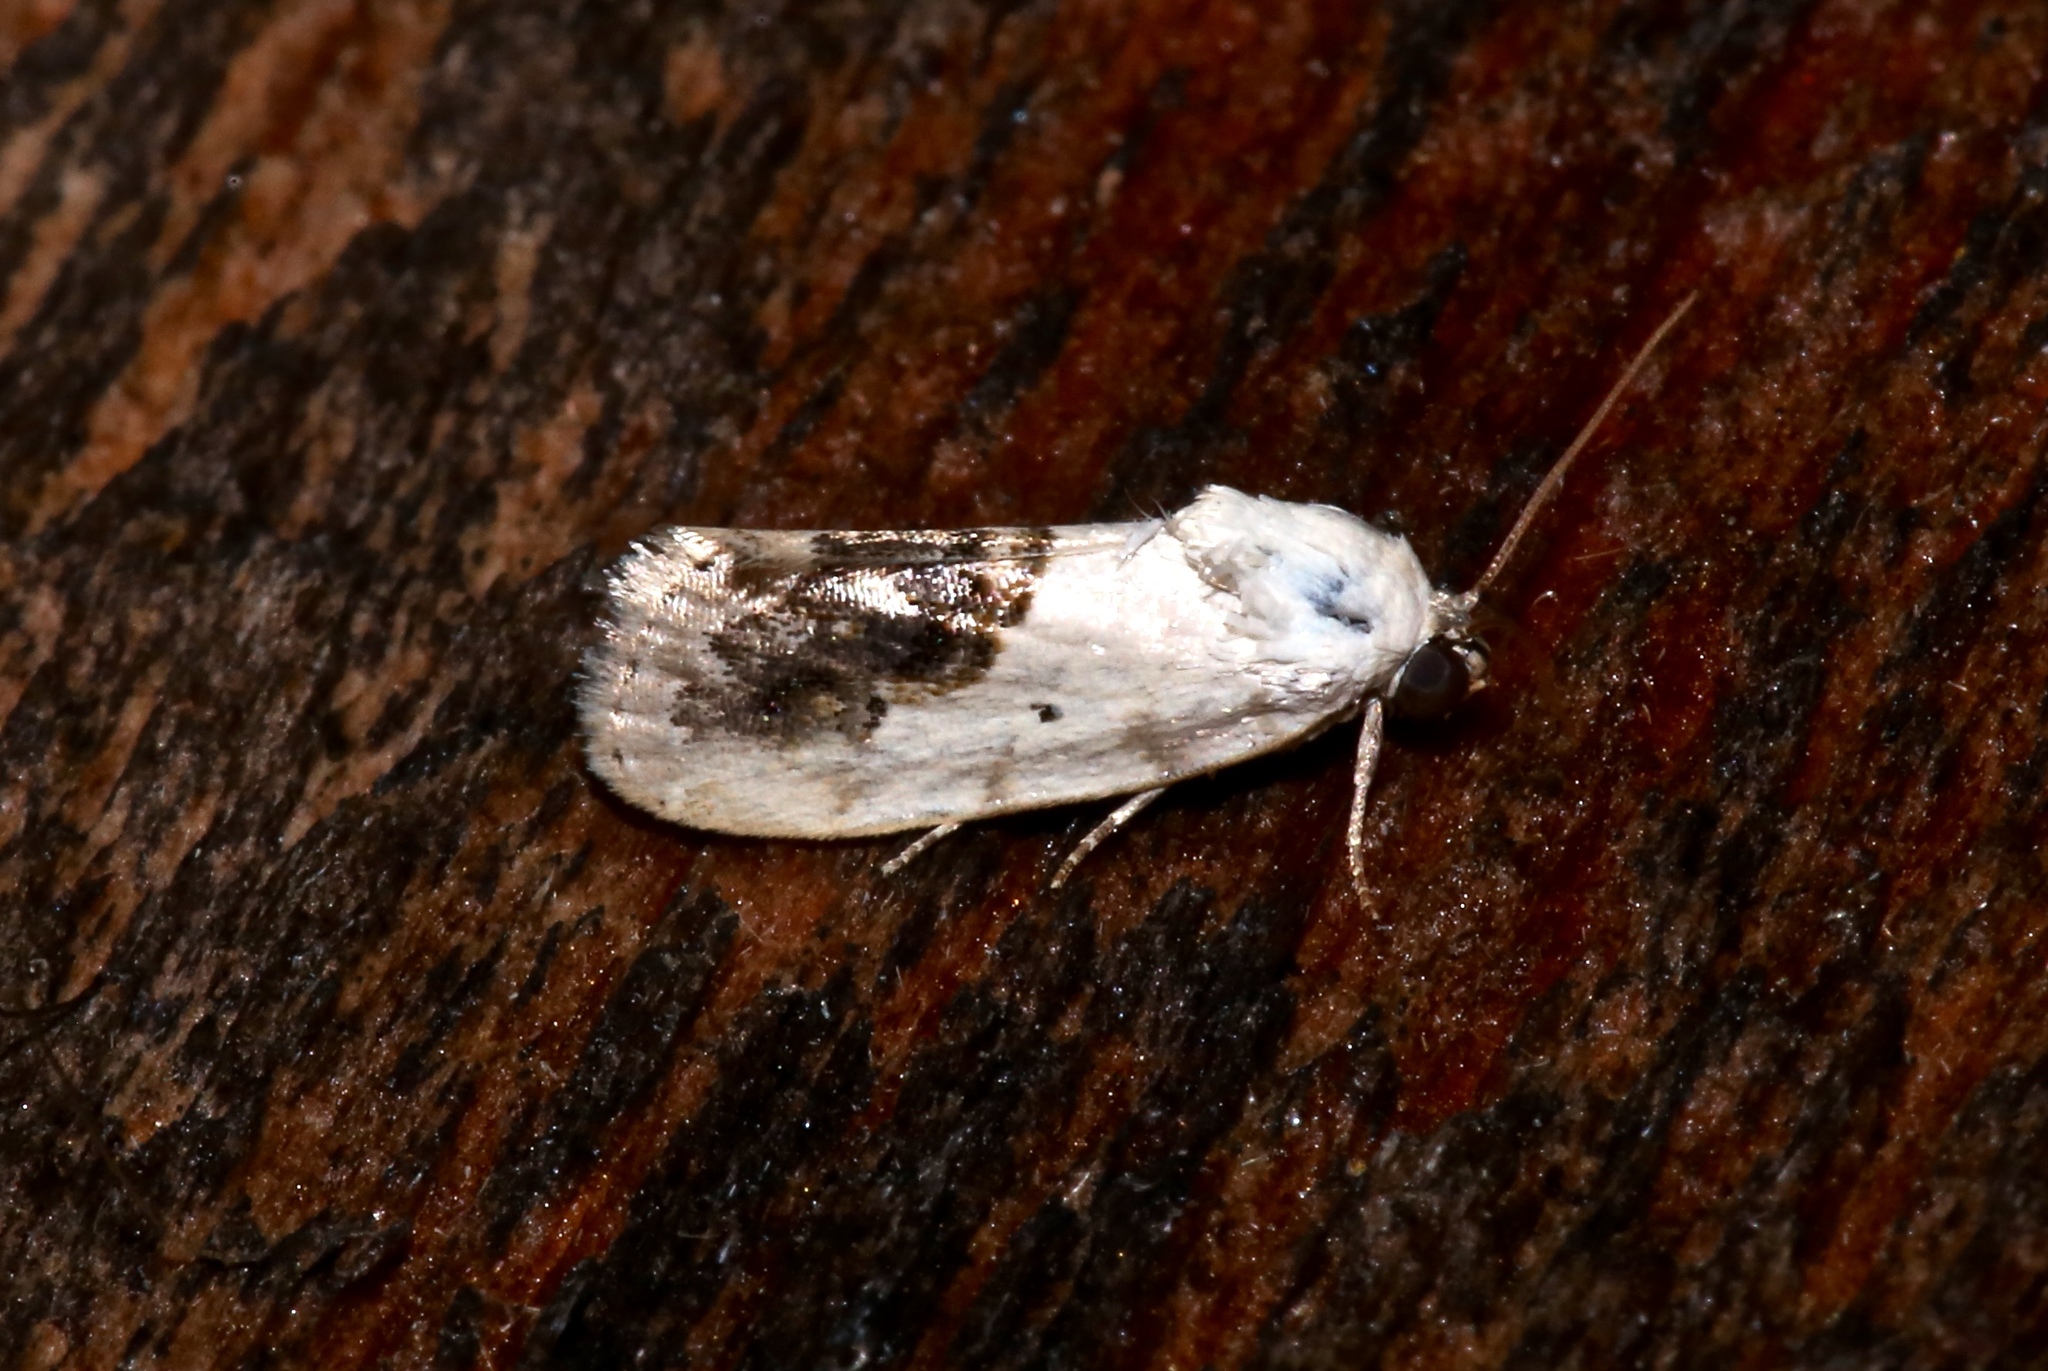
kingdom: Animalia
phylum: Arthropoda
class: Insecta
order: Lepidoptera
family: Noctuidae
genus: Acontia
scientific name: Acontia erastrioides
